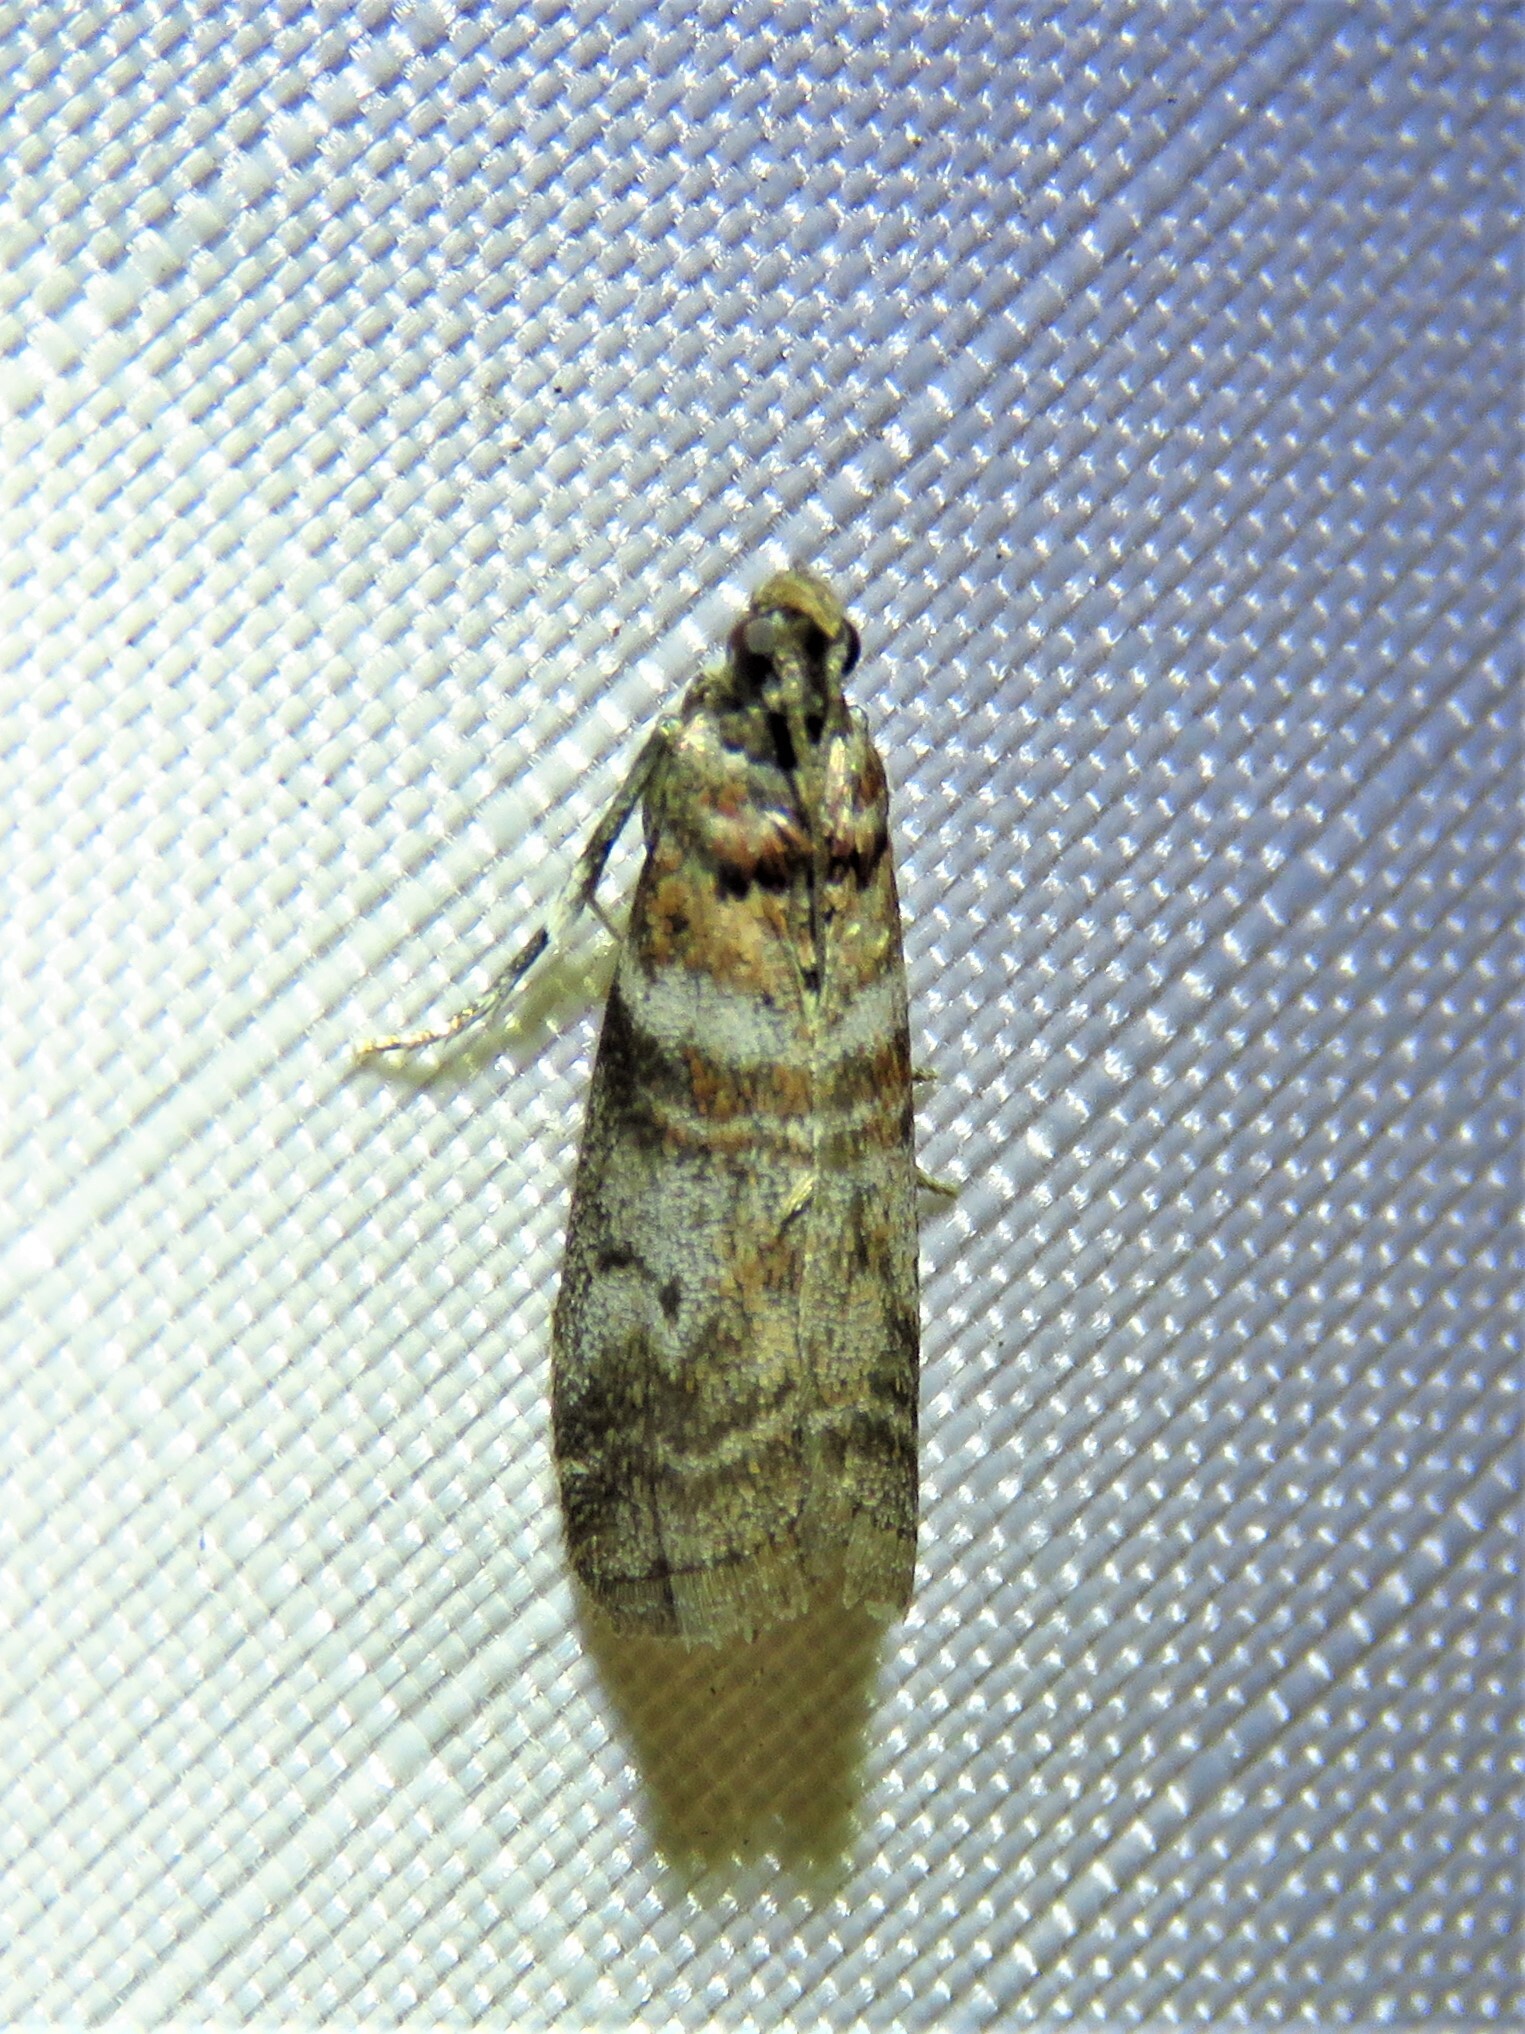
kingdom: Animalia
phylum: Arthropoda
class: Insecta
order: Lepidoptera
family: Pyralidae
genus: Sciota
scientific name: Sciota uvinella
